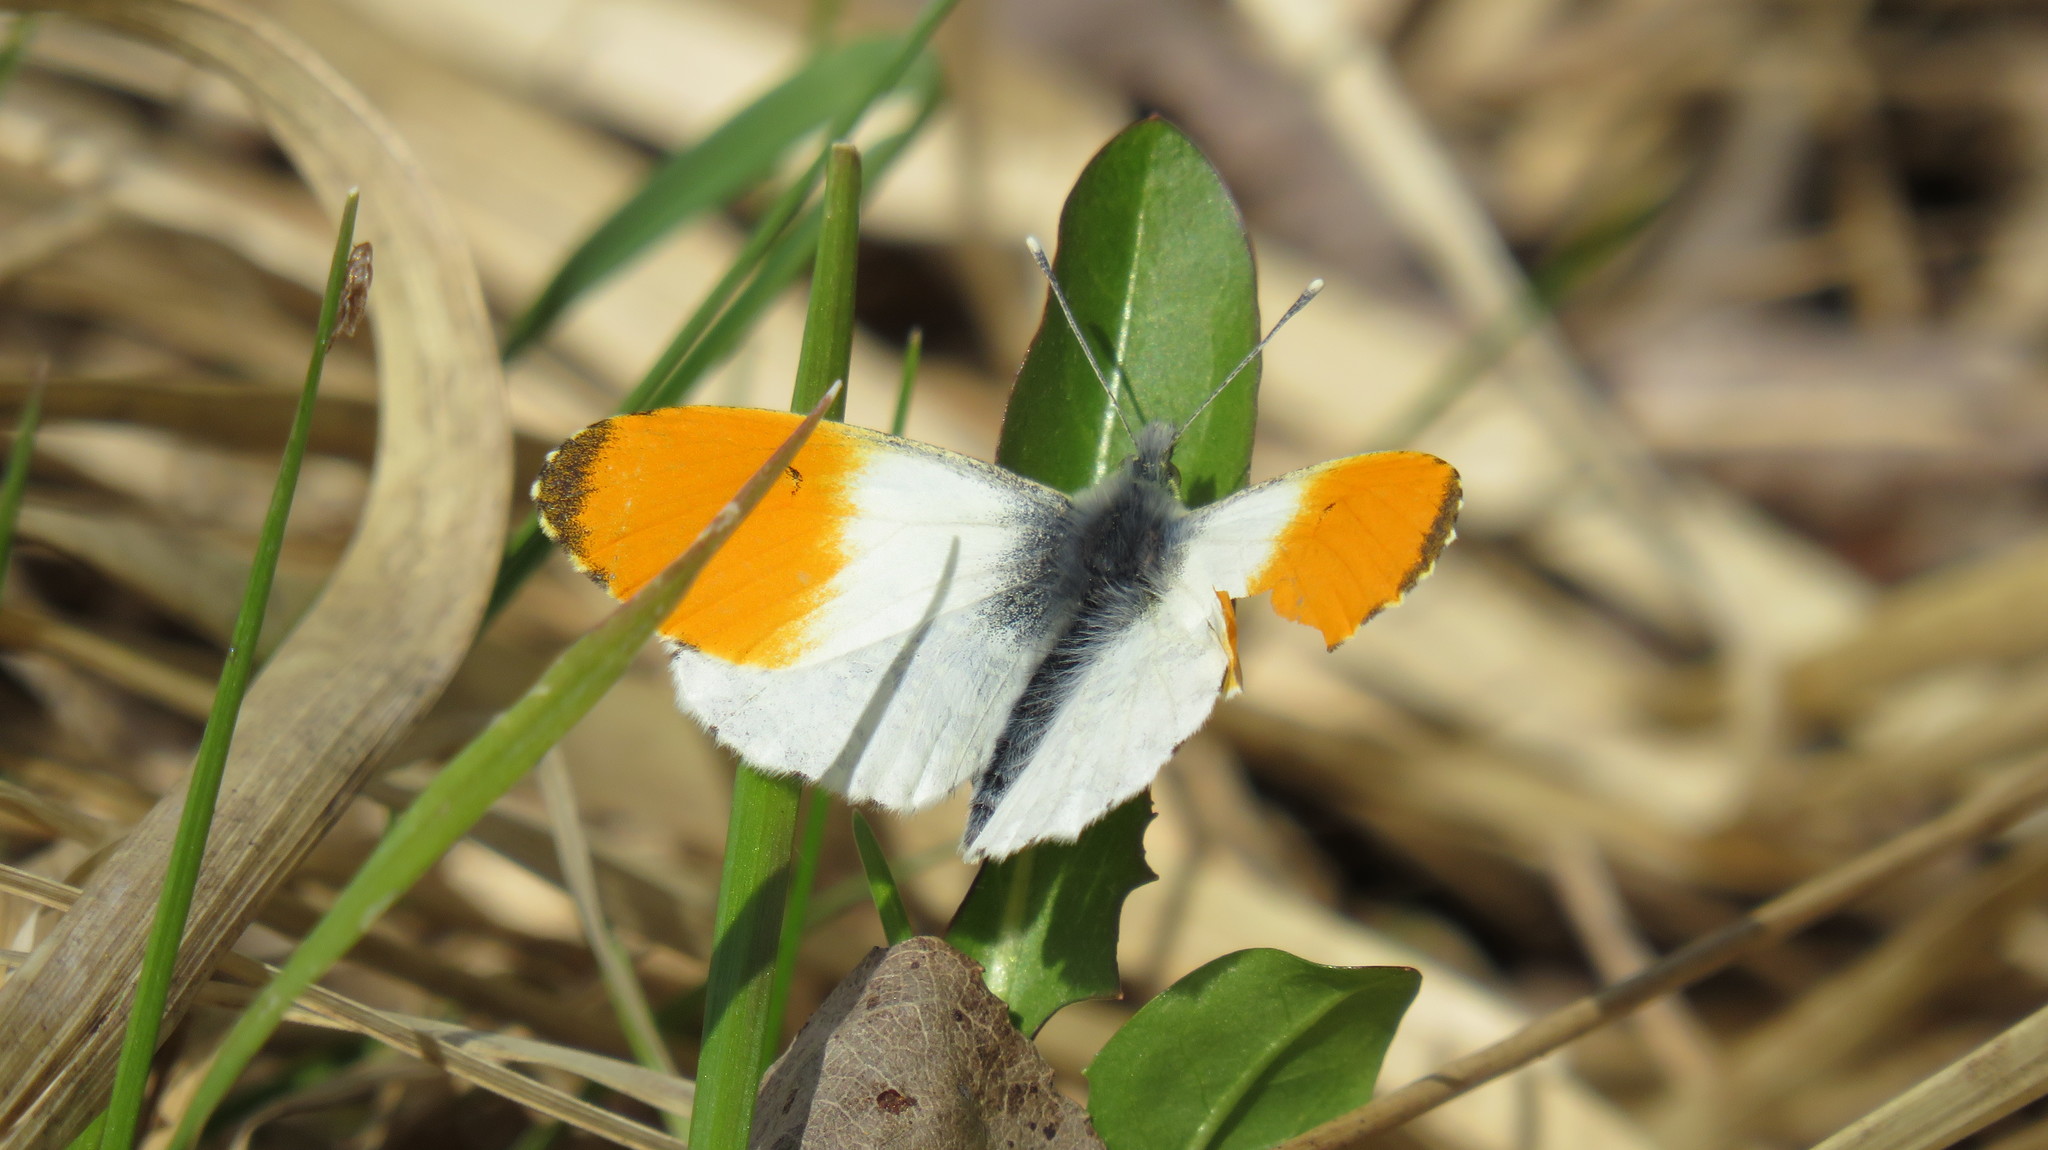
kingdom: Animalia
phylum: Arthropoda
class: Insecta
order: Lepidoptera
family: Pieridae
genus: Anthocharis
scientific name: Anthocharis cardamines
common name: Orange-tip
